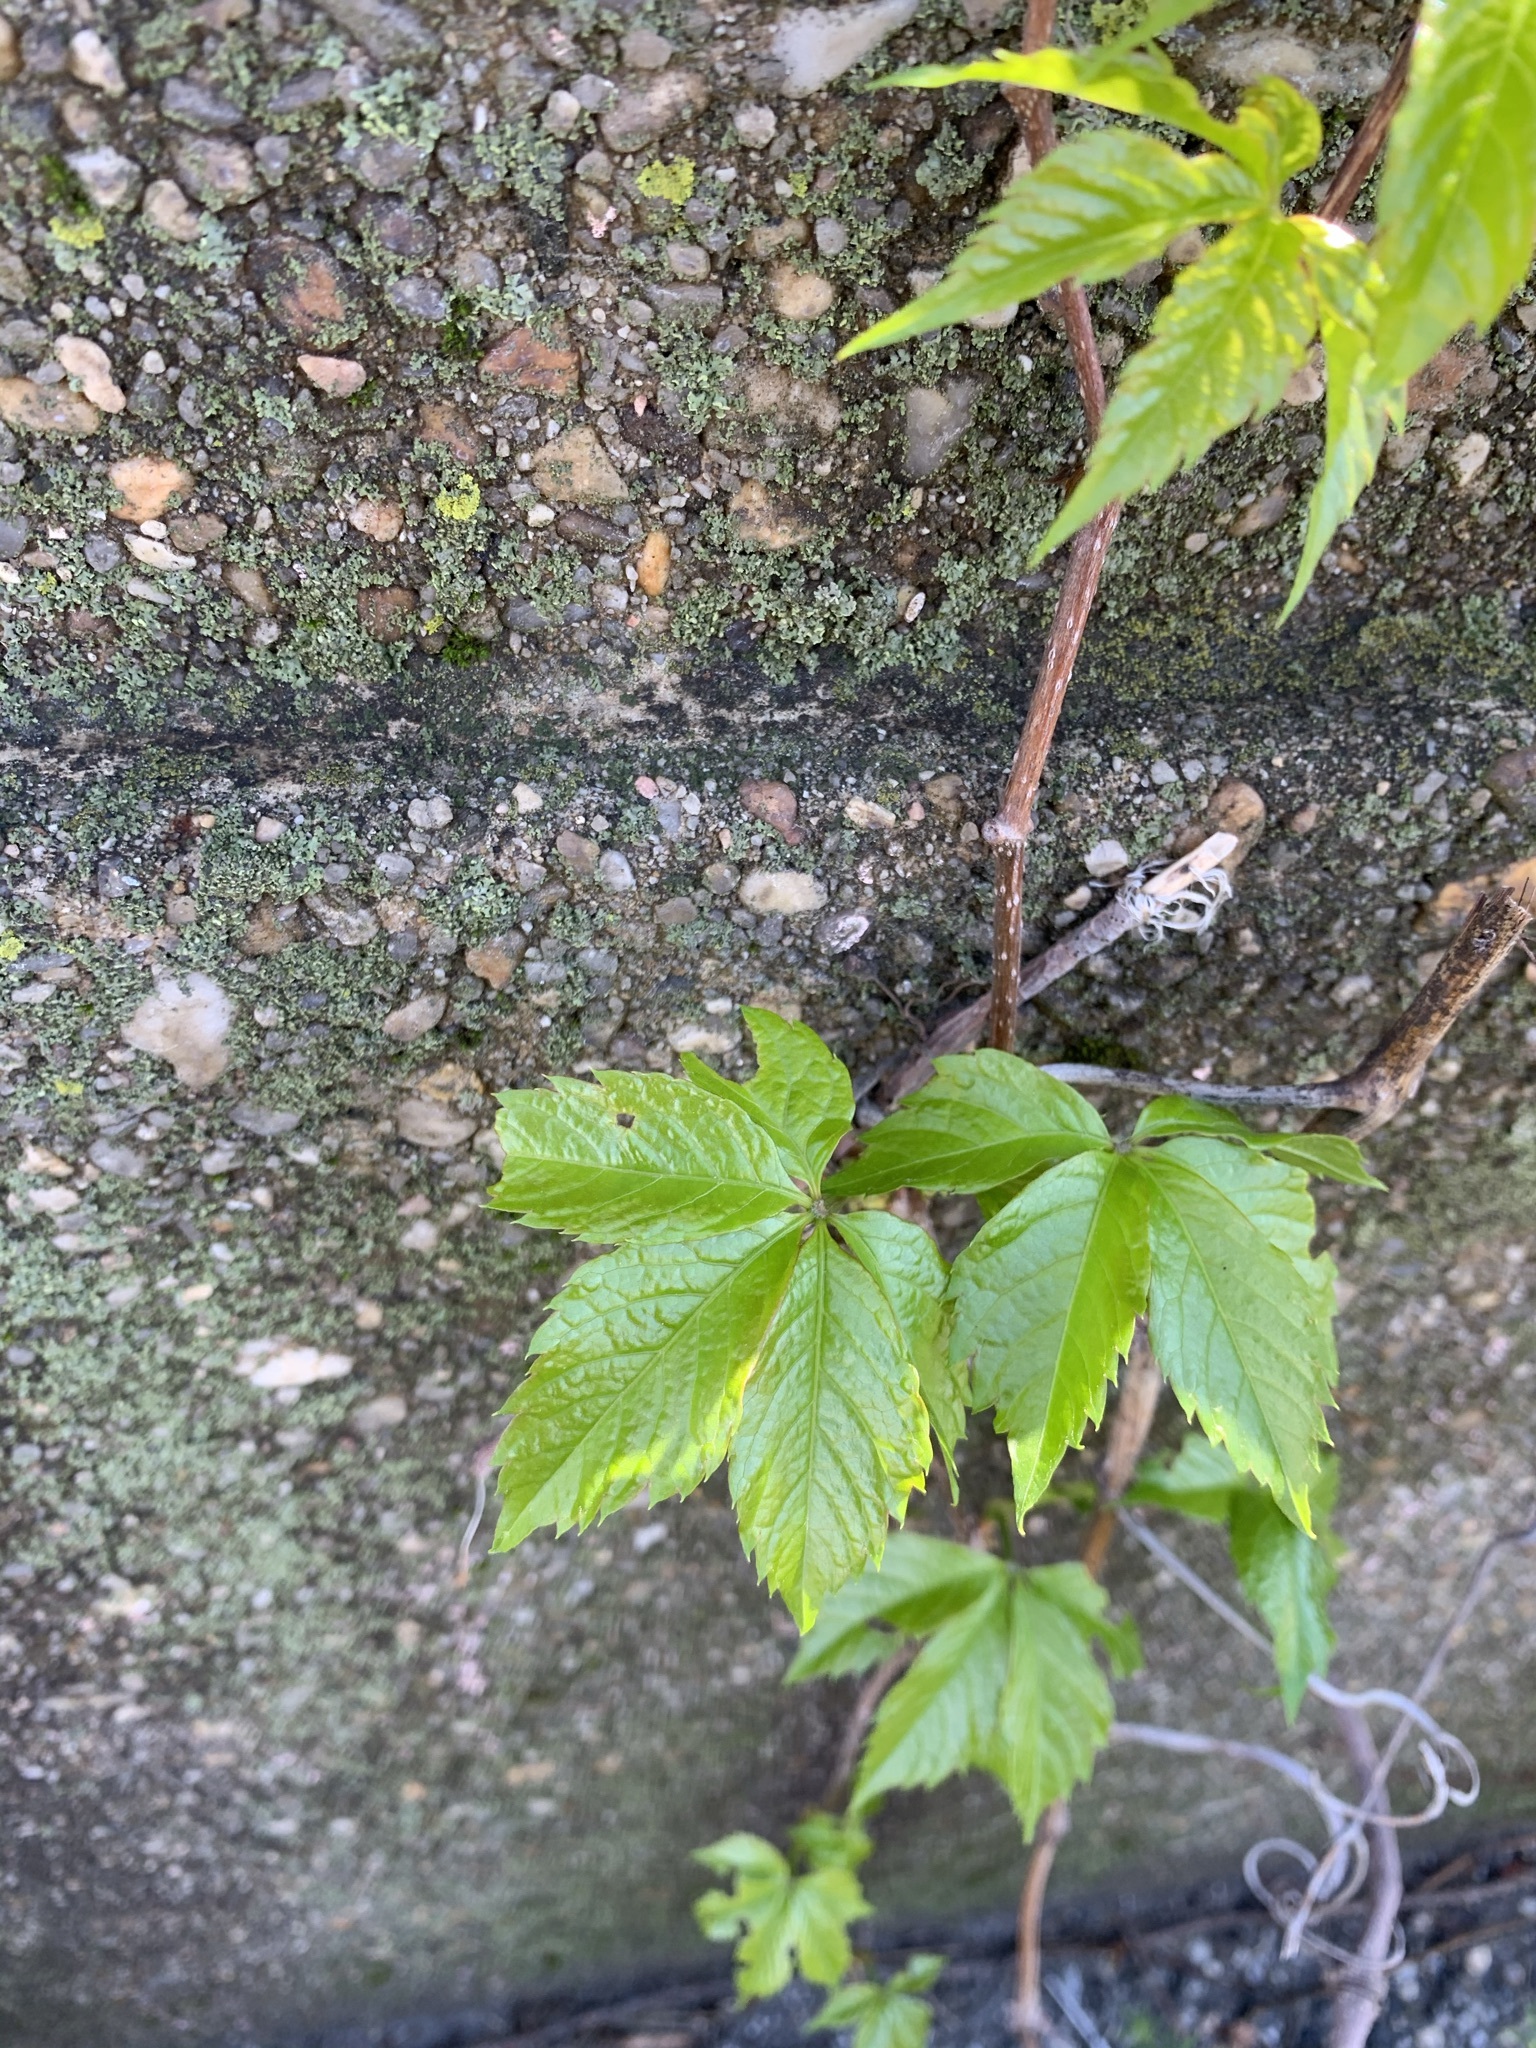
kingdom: Plantae
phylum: Tracheophyta
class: Magnoliopsida
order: Vitales
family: Vitaceae
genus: Parthenocissus
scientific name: Parthenocissus quinquefolia
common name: Virginia-creeper
